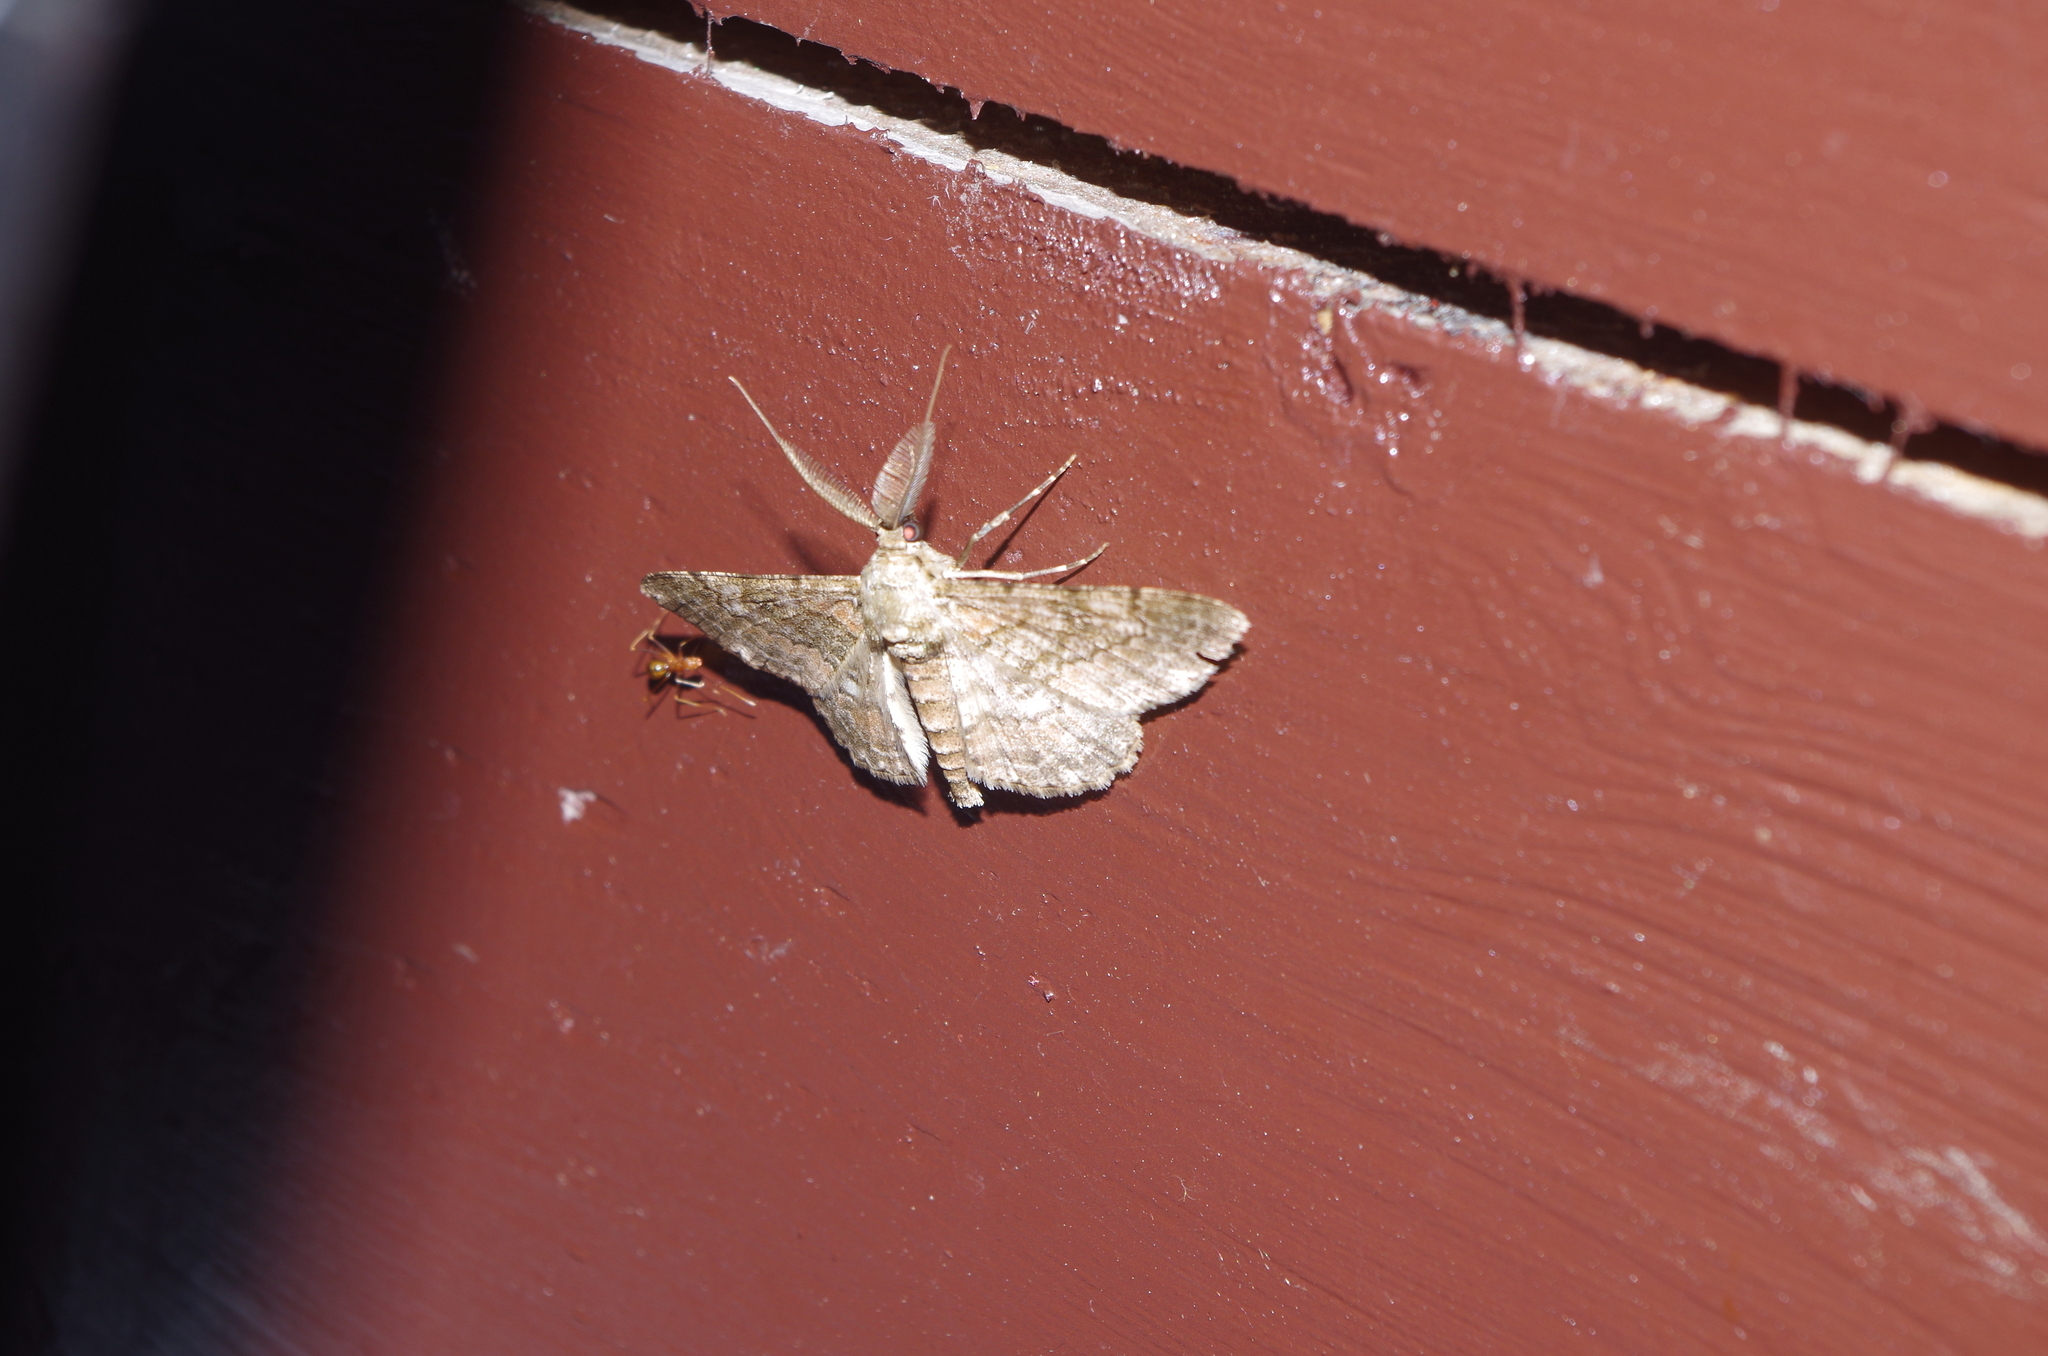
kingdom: Animalia
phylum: Arthropoda
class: Insecta
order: Lepidoptera
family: Geometridae
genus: Cleora
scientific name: Cleora repulsaria
